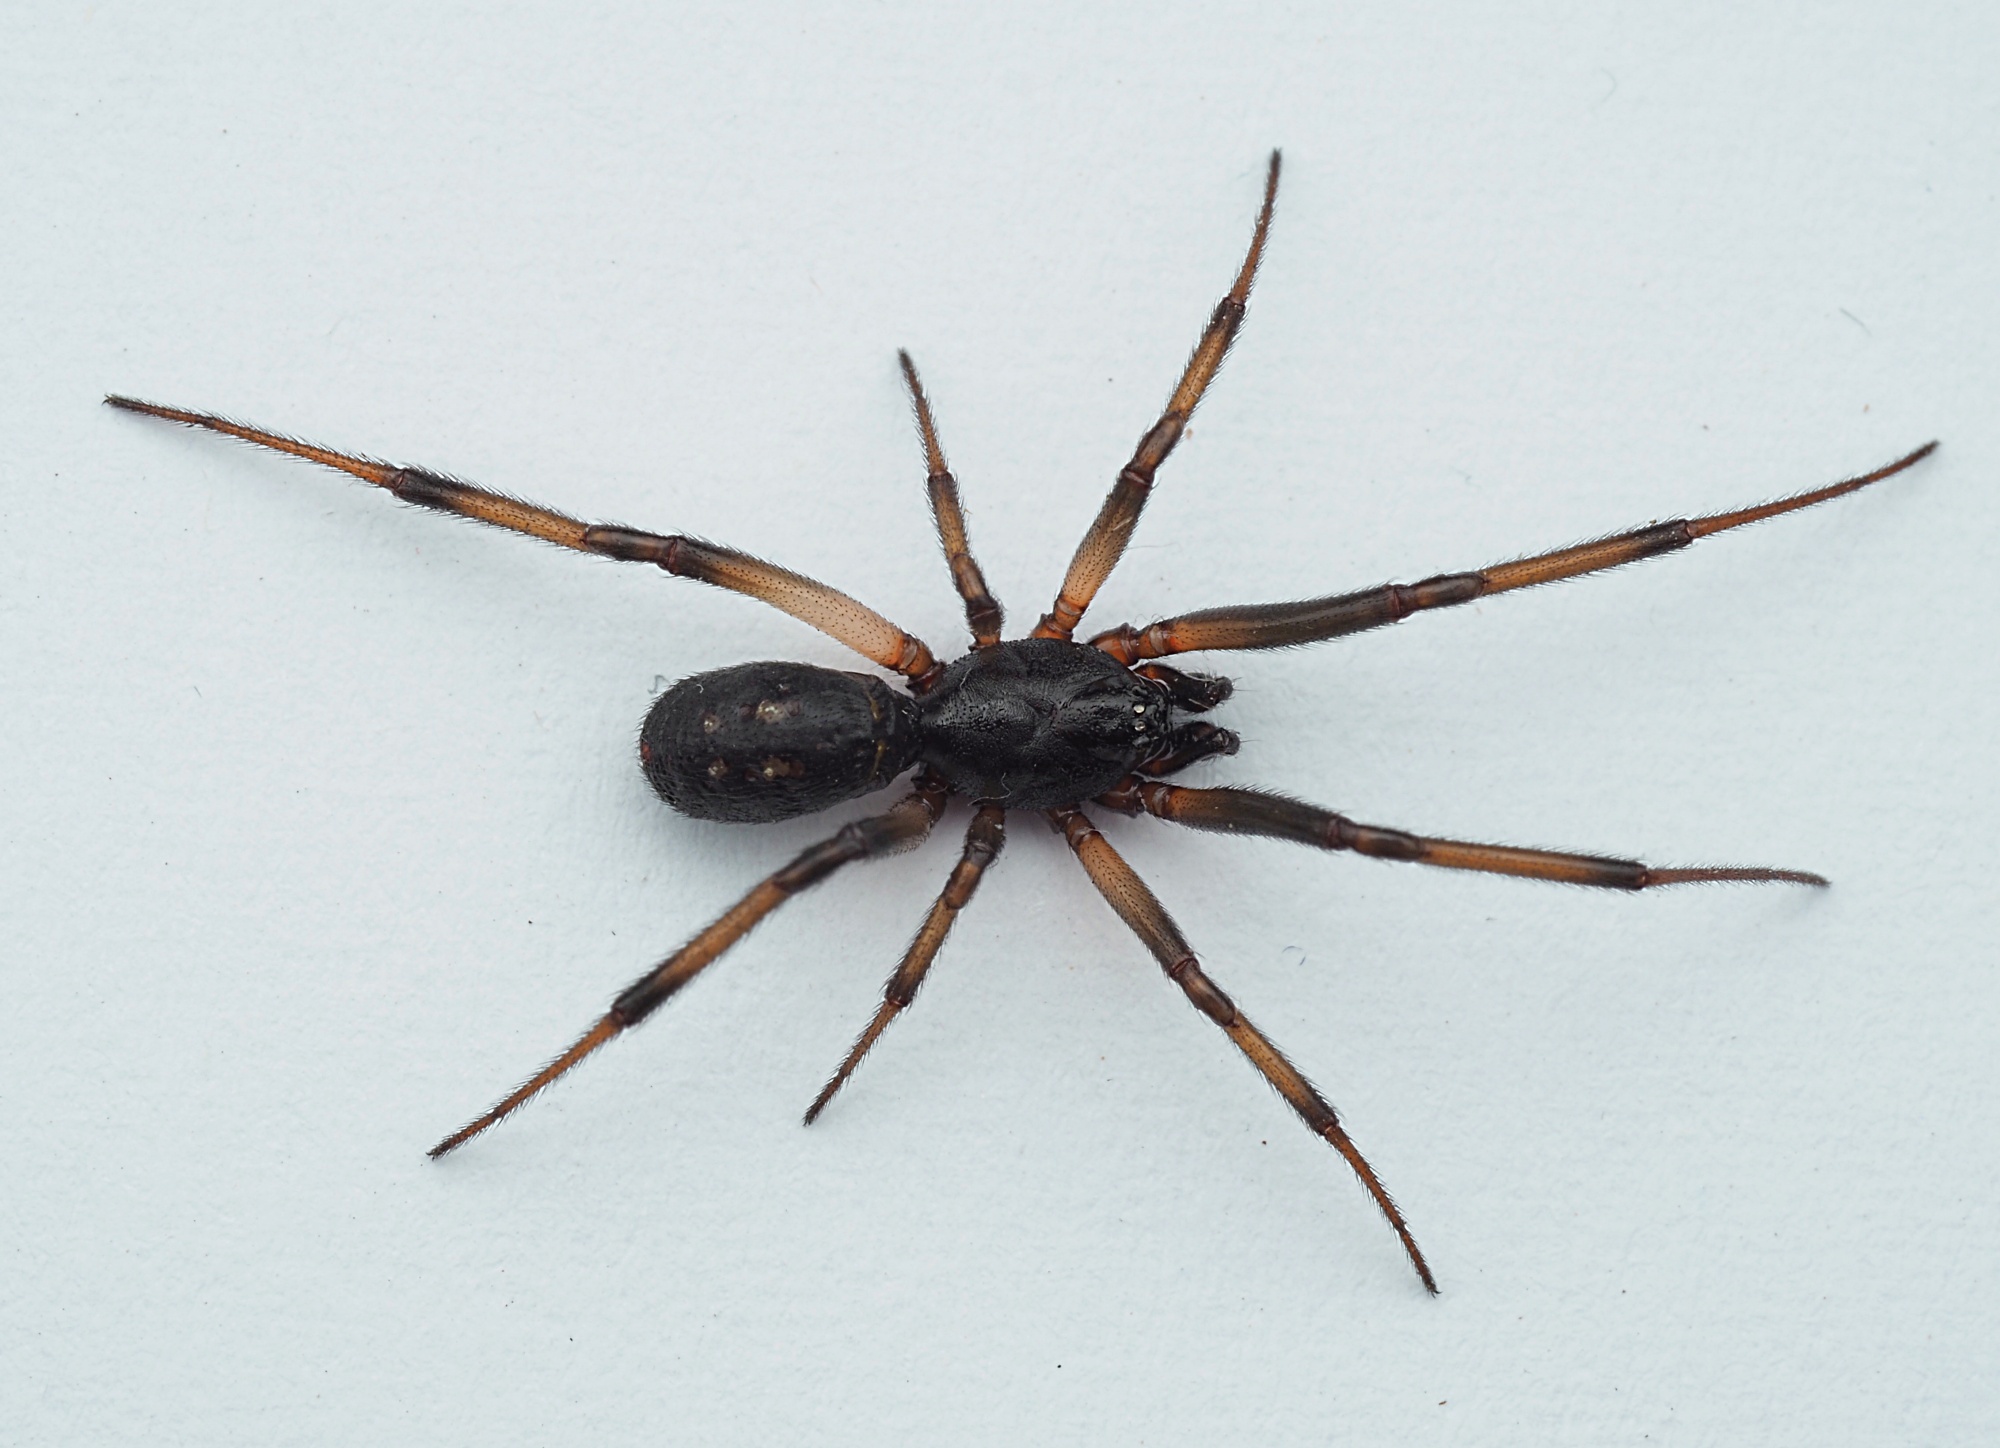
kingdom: Animalia
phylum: Arthropoda
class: Arachnida
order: Araneae
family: Theridiidae
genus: Steatoda
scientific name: Steatoda capensis
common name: Cobweb weaver
